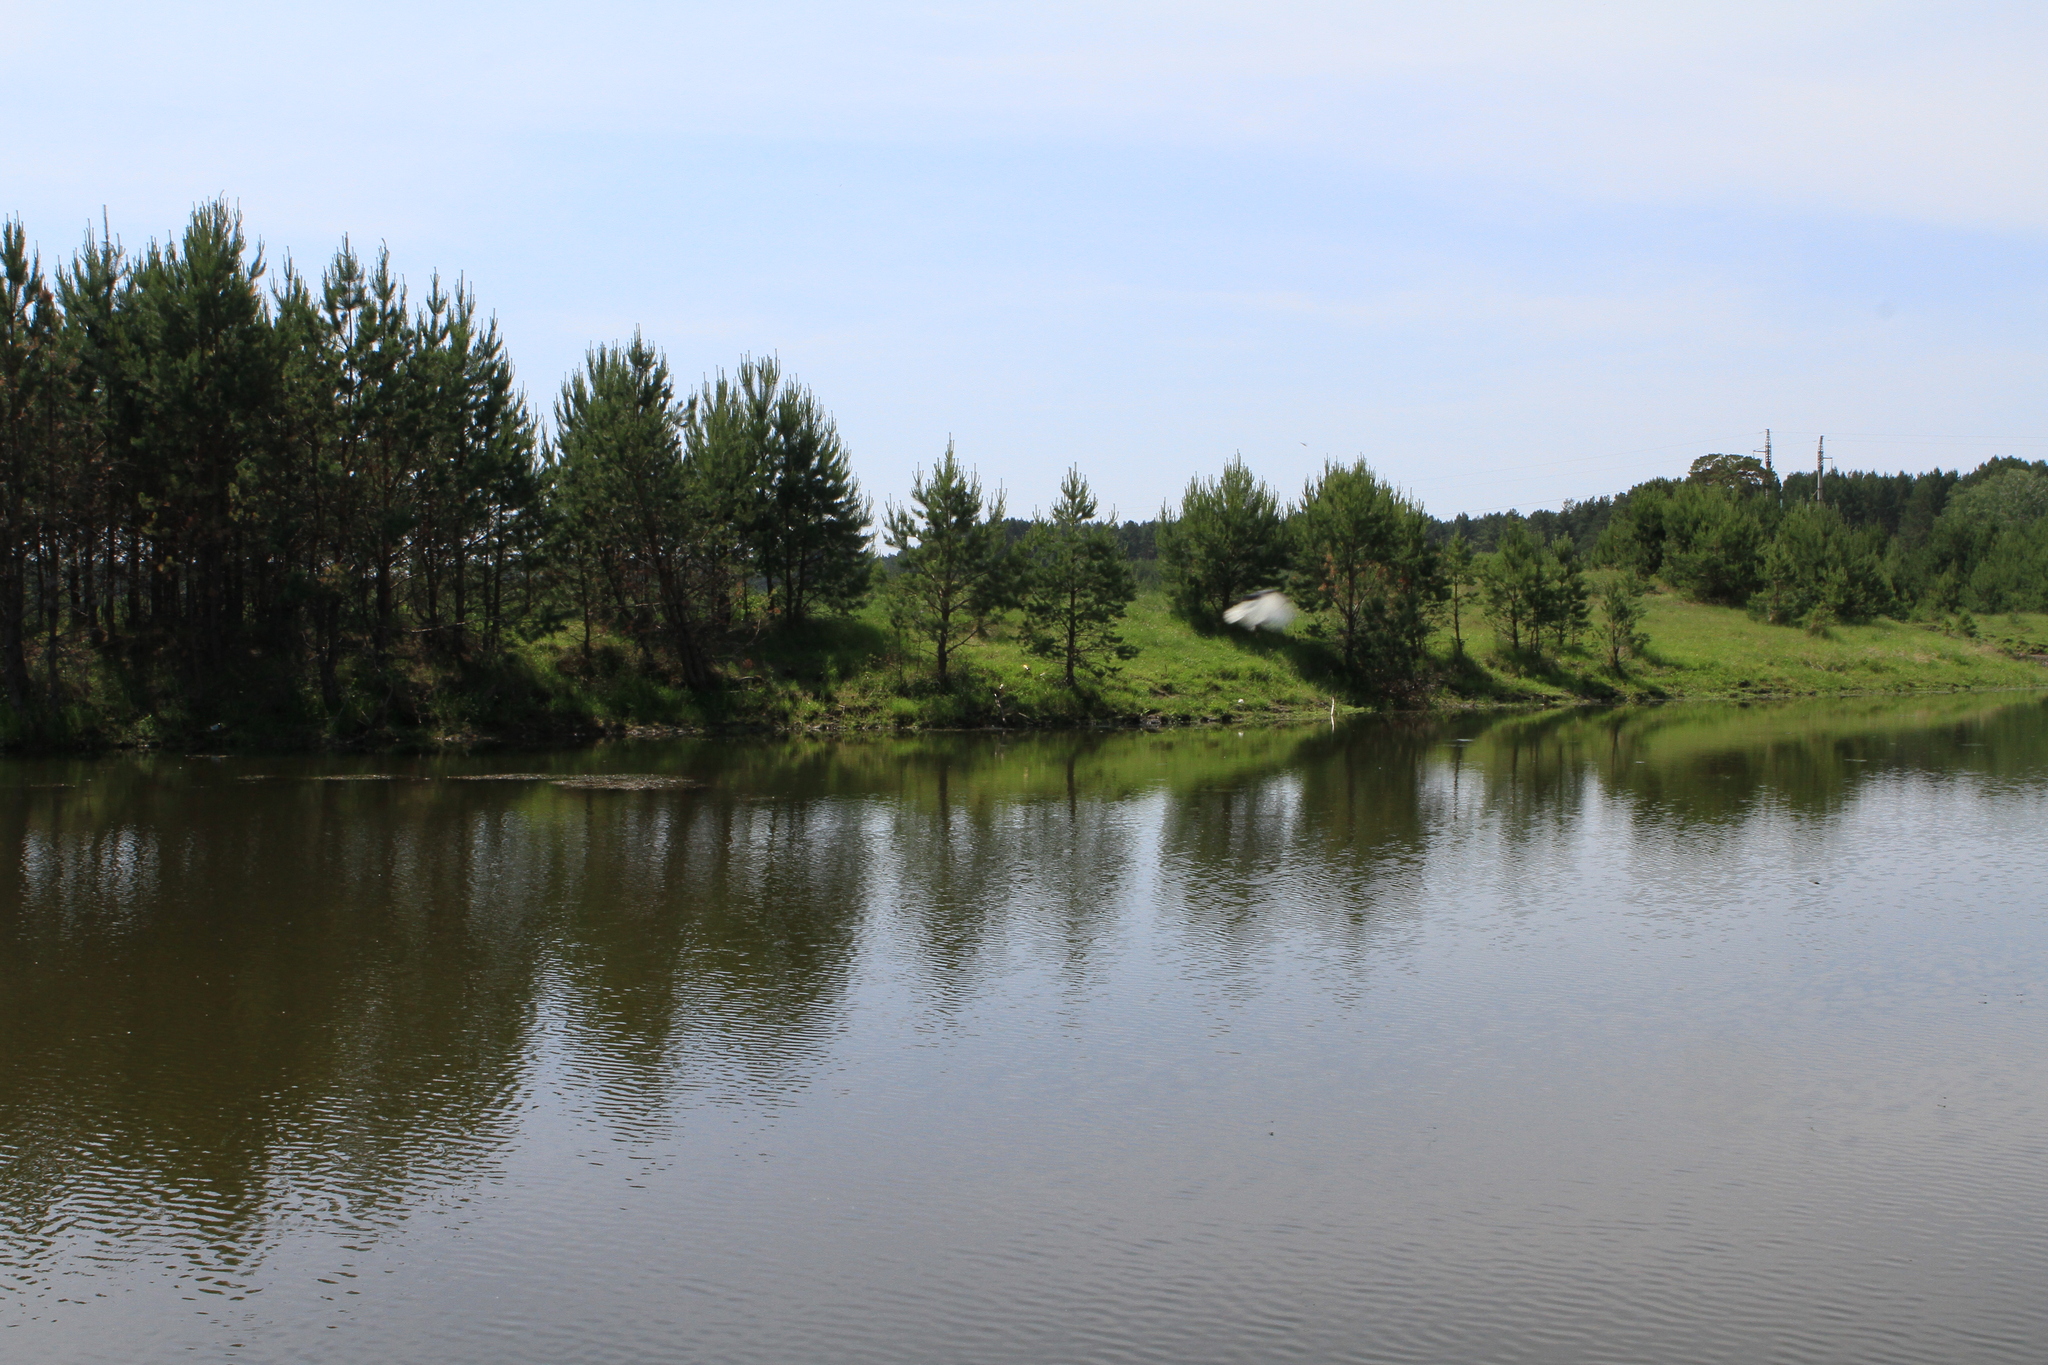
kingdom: Plantae
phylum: Tracheophyta
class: Pinopsida
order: Pinales
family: Pinaceae
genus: Pinus
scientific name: Pinus sylvestris
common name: Scots pine
